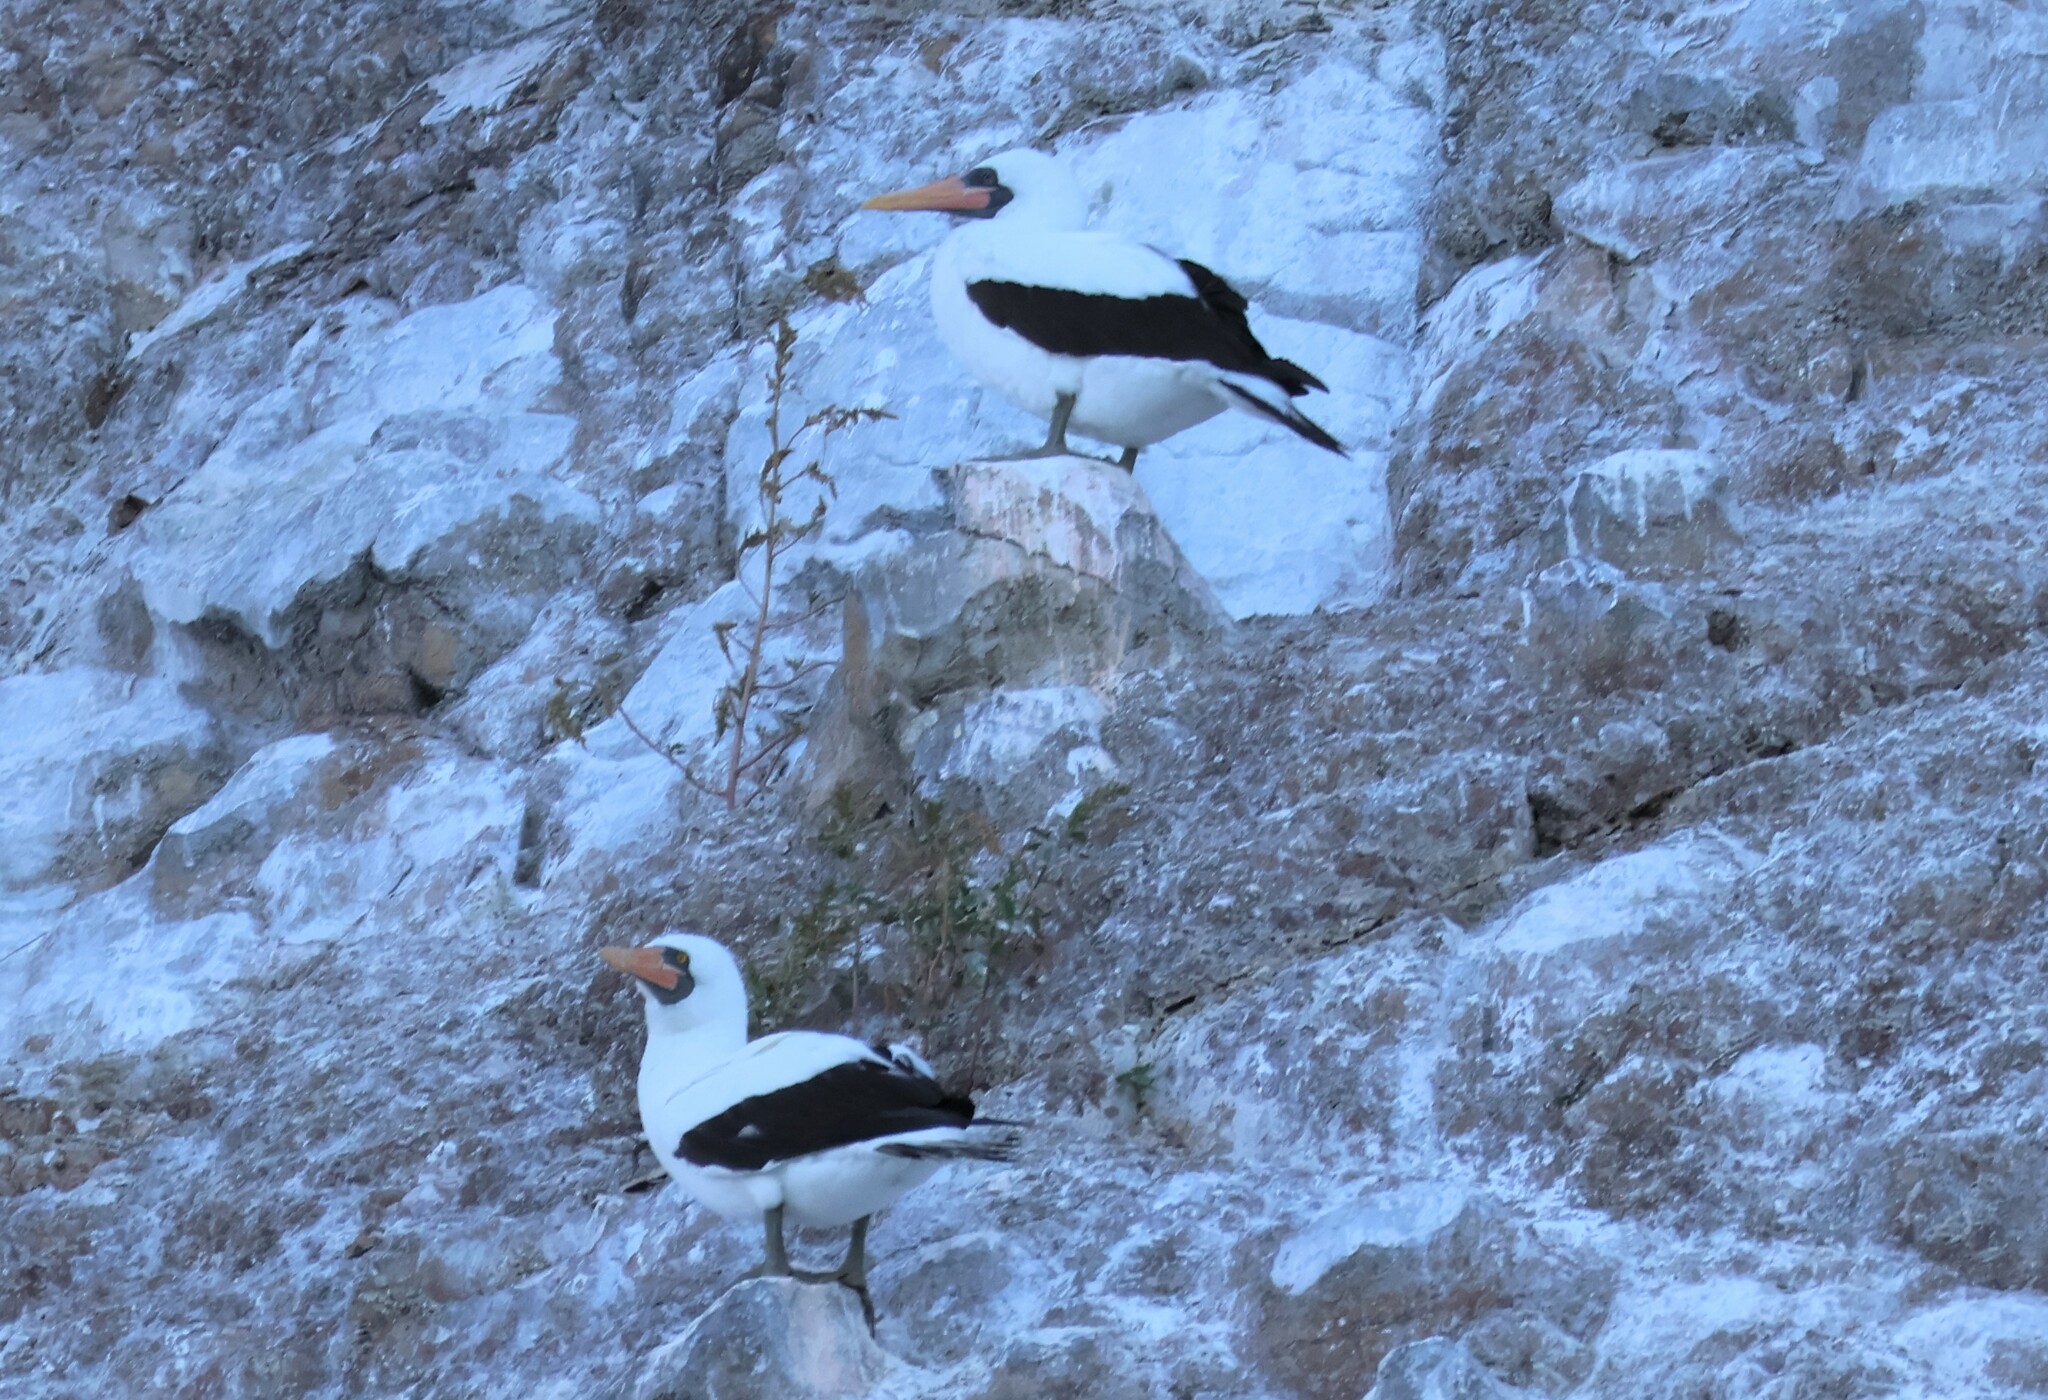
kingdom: Animalia
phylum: Chordata
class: Aves
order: Suliformes
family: Sulidae
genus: Sula
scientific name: Sula granti
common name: Nazca booby
